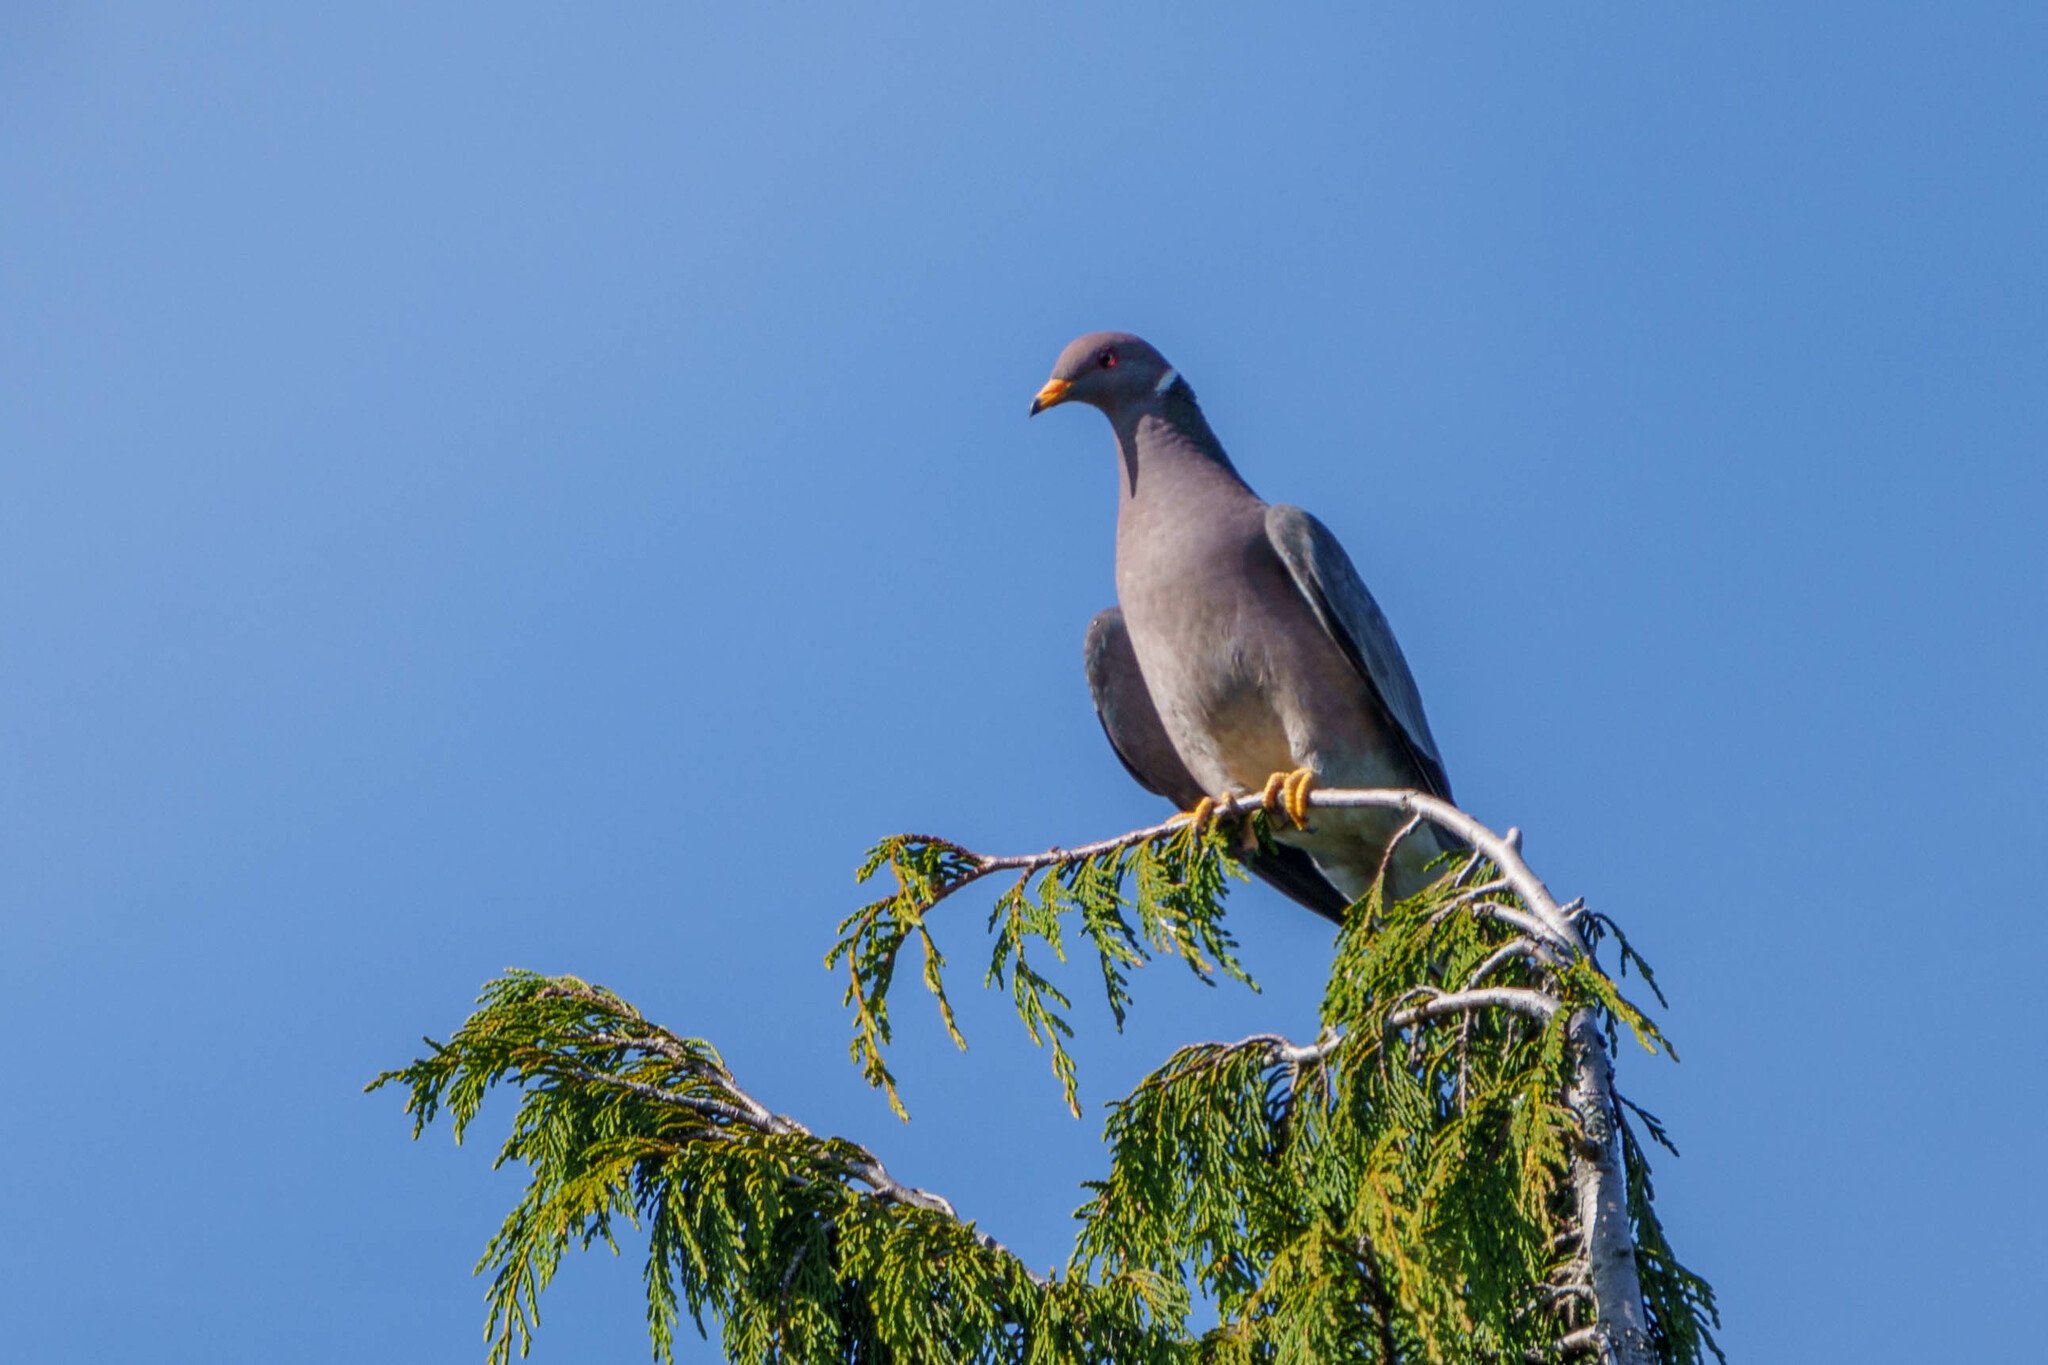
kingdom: Animalia
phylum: Chordata
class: Aves
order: Columbiformes
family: Columbidae
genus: Patagioenas
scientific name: Patagioenas fasciata
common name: Band-tailed pigeon
